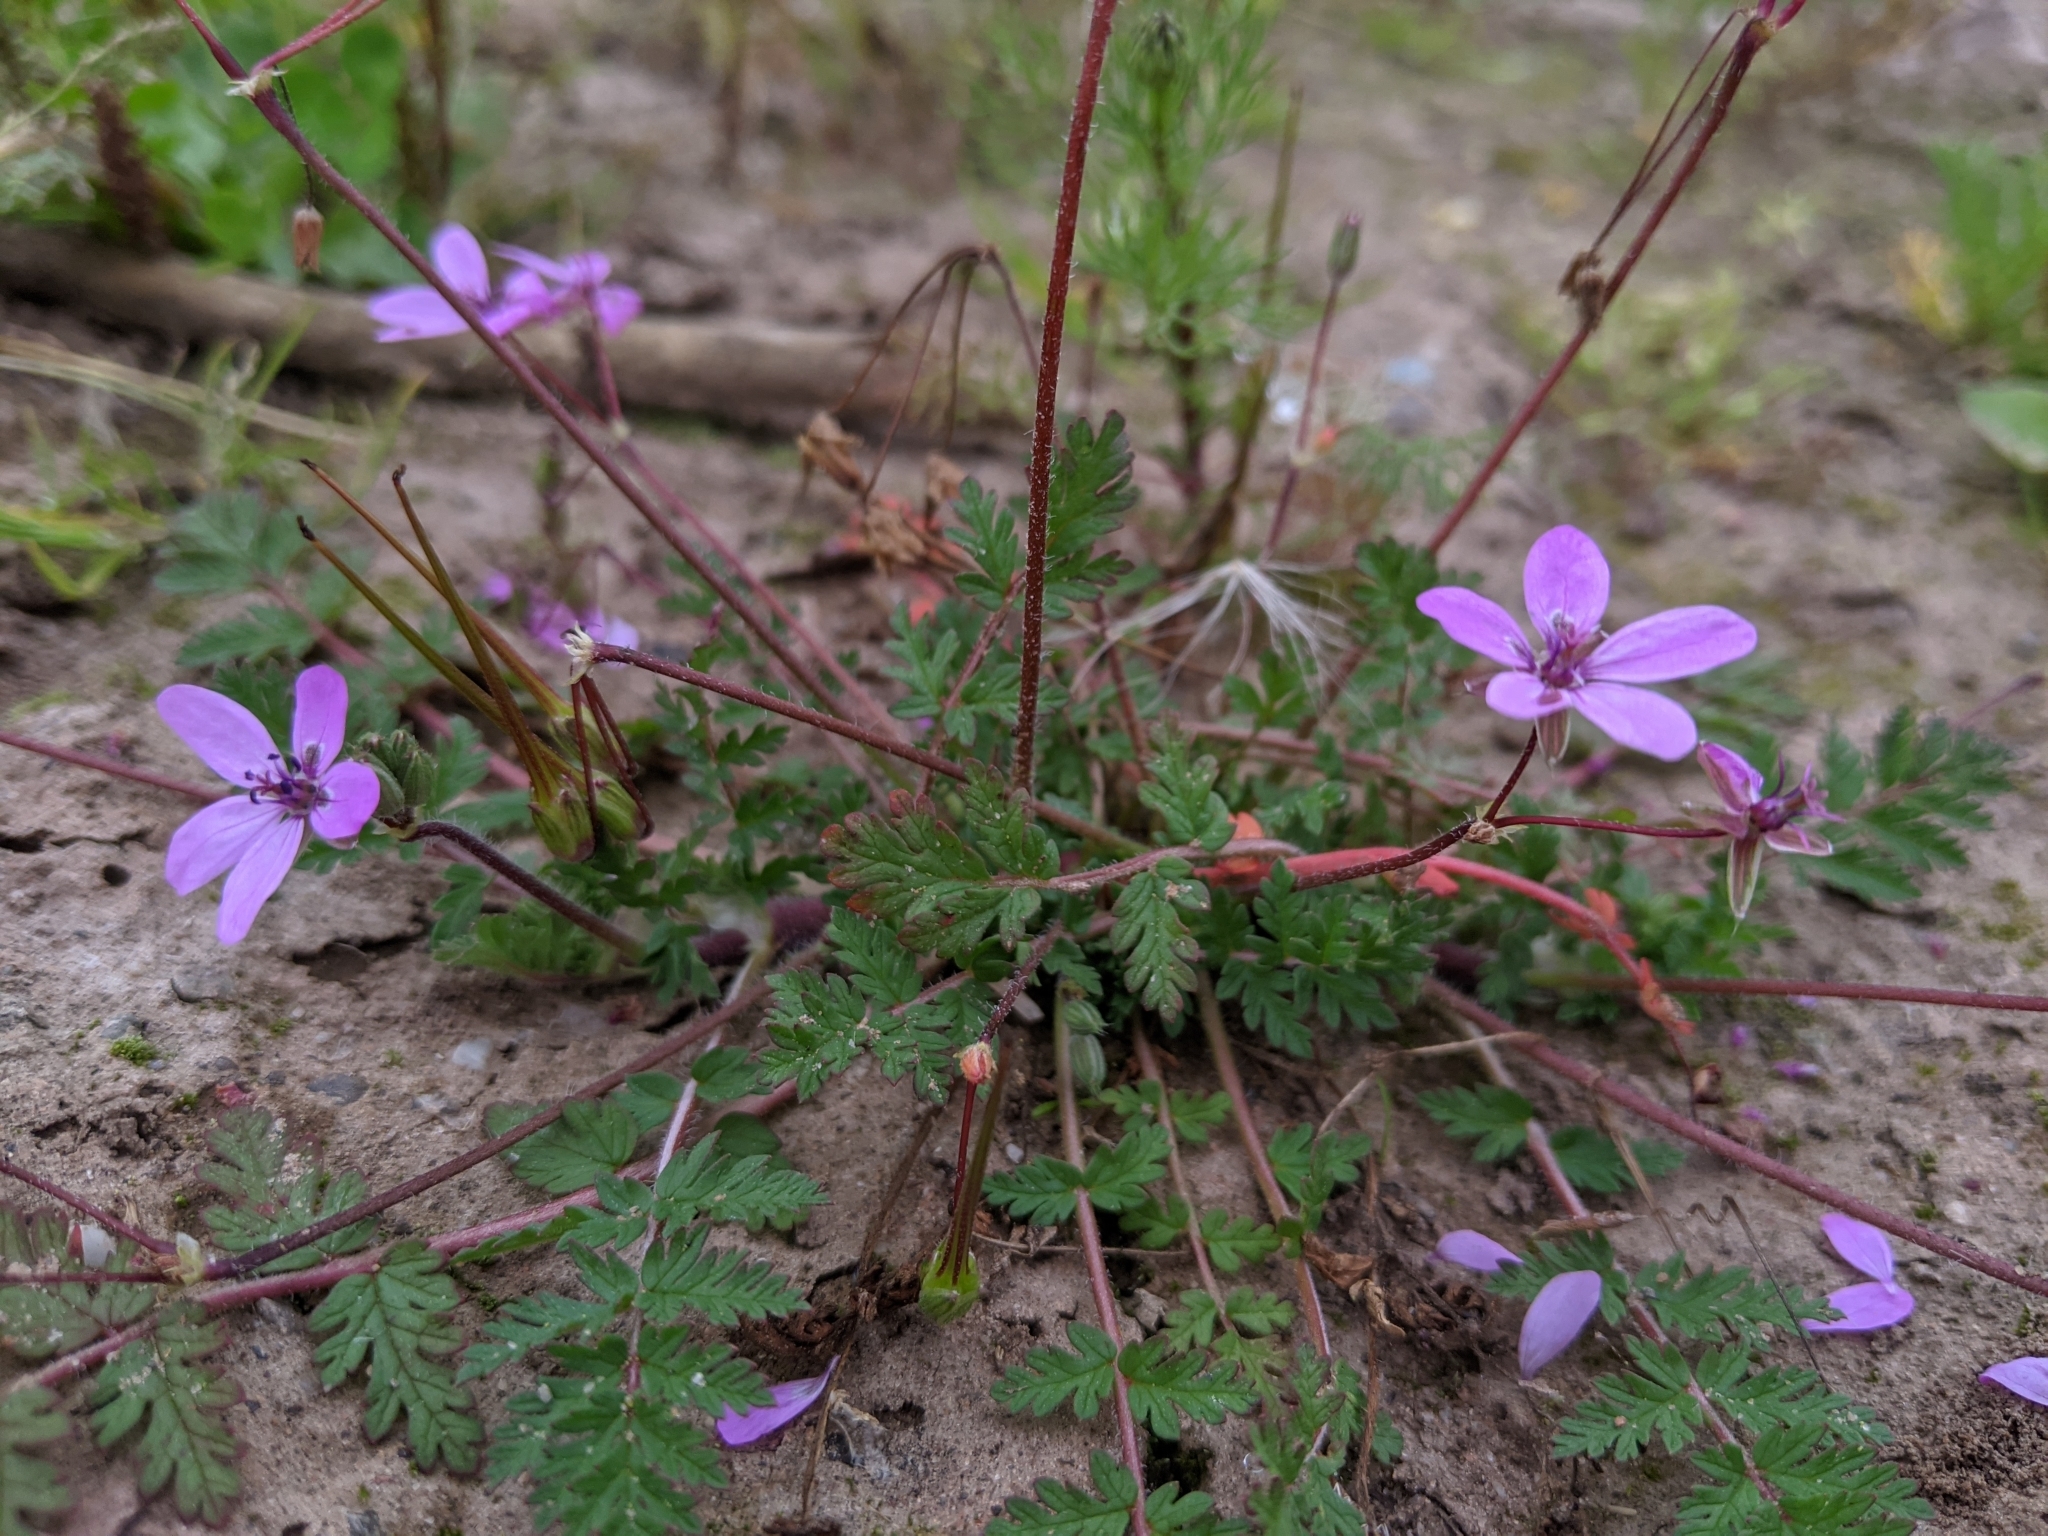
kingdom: Plantae
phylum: Tracheophyta
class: Magnoliopsida
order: Geraniales
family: Geraniaceae
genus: Erodium
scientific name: Erodium cicutarium
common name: Common stork's-bill
